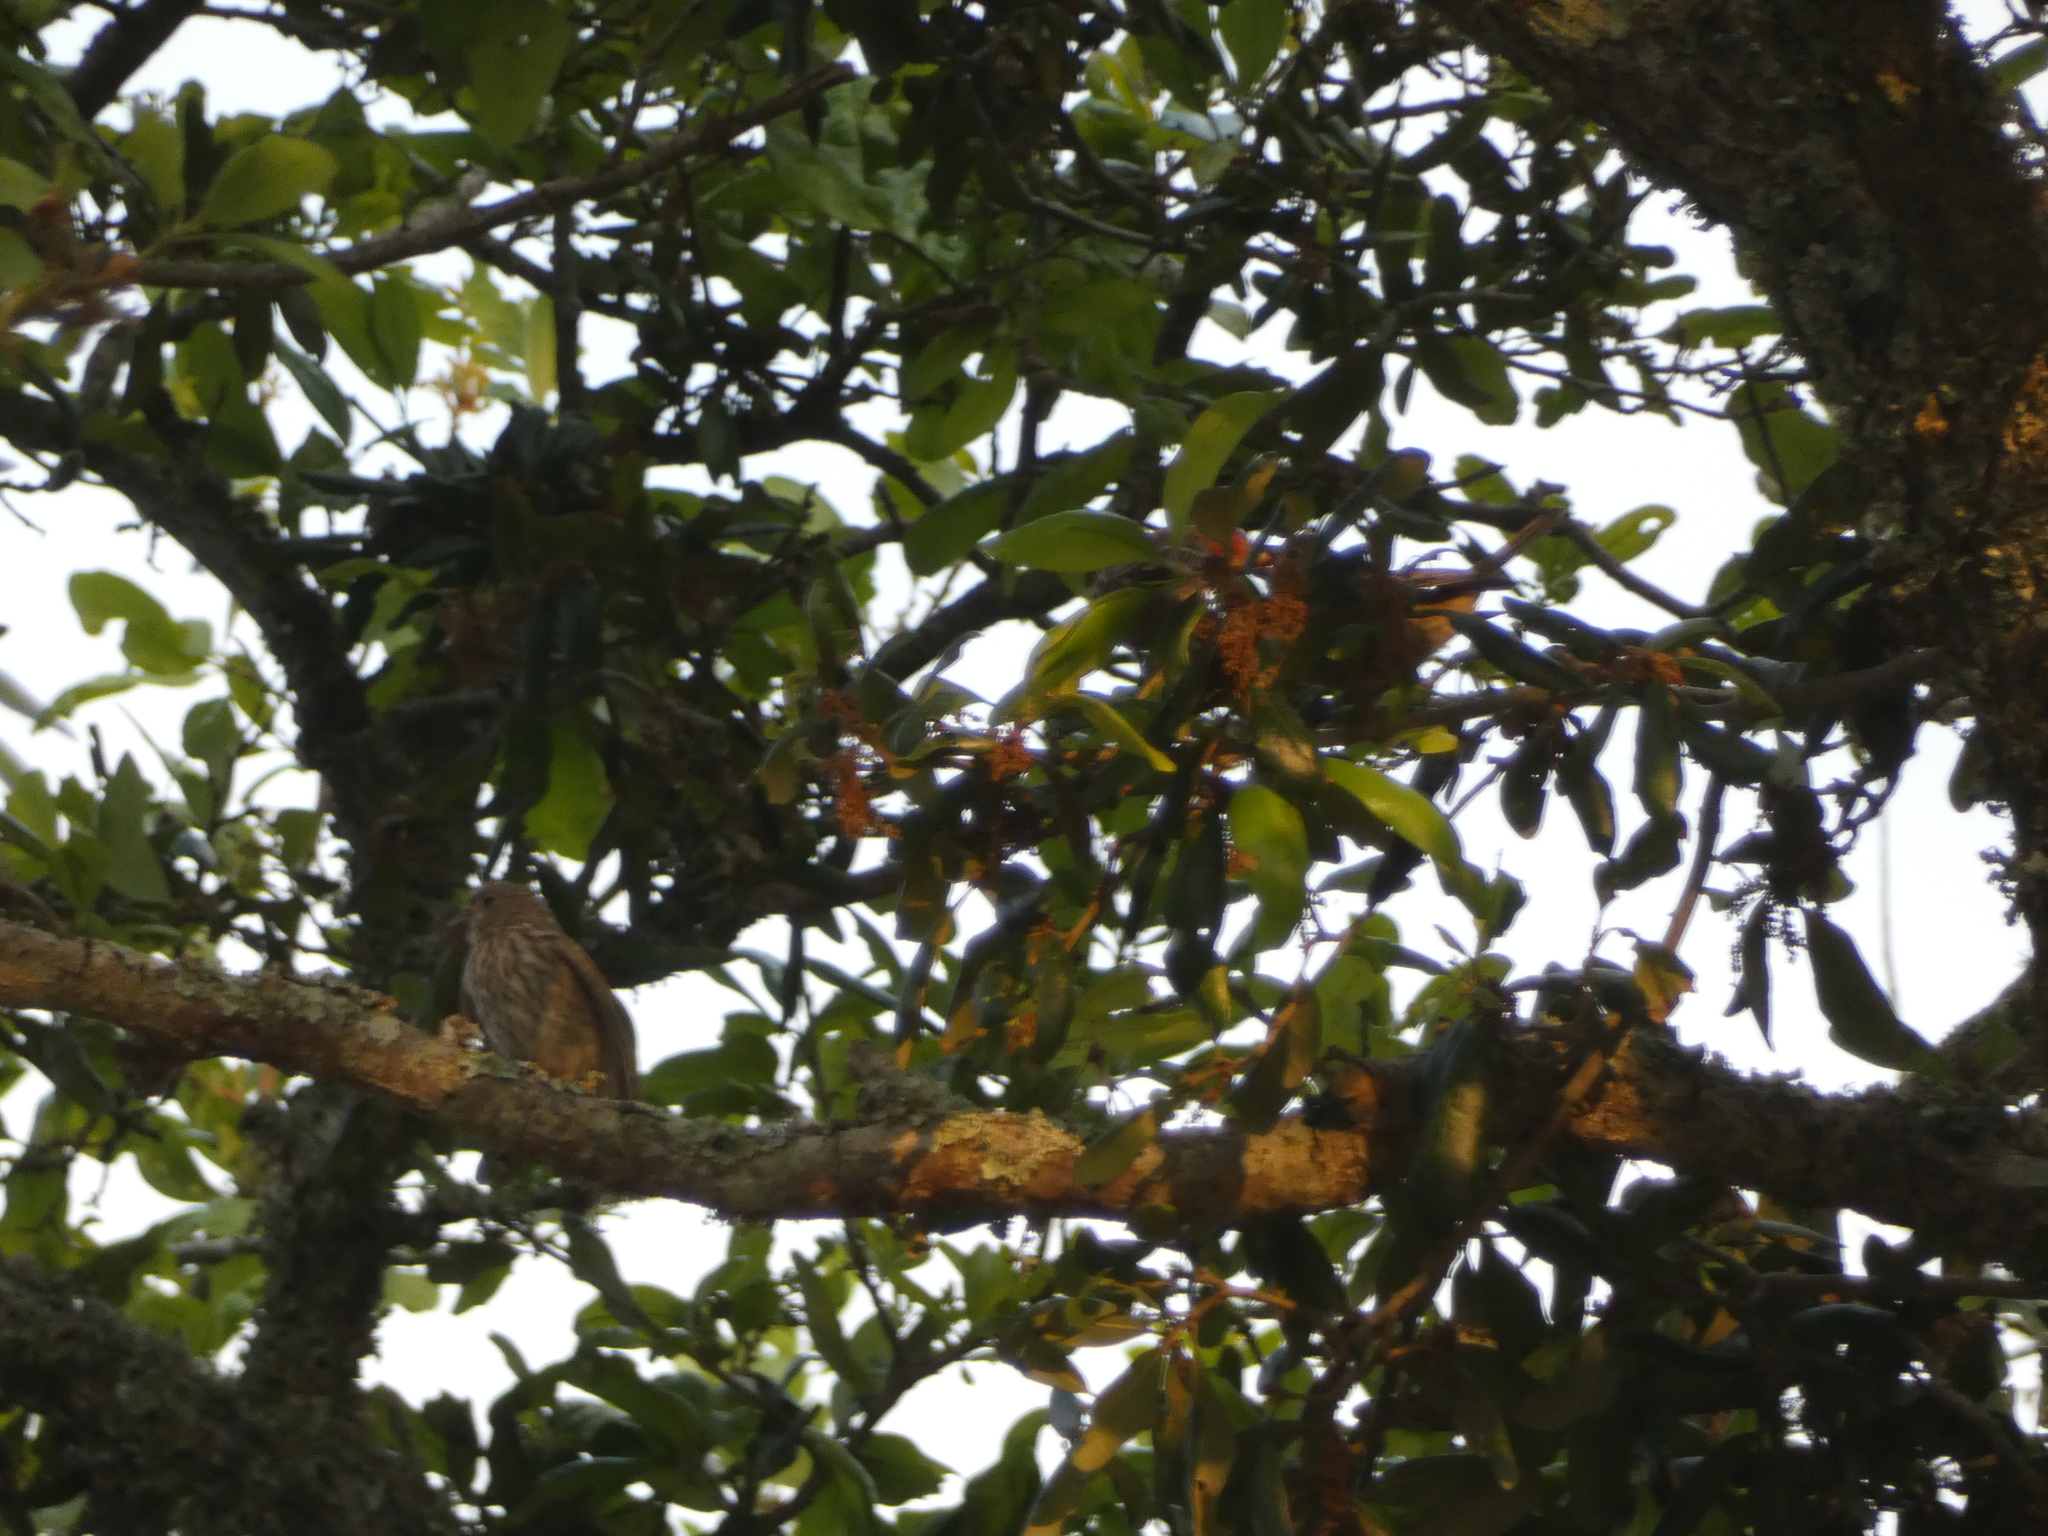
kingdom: Animalia
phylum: Chordata
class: Aves
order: Passeriformes
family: Fringillidae
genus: Haemorhous
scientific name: Haemorhous mexicanus
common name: House finch
